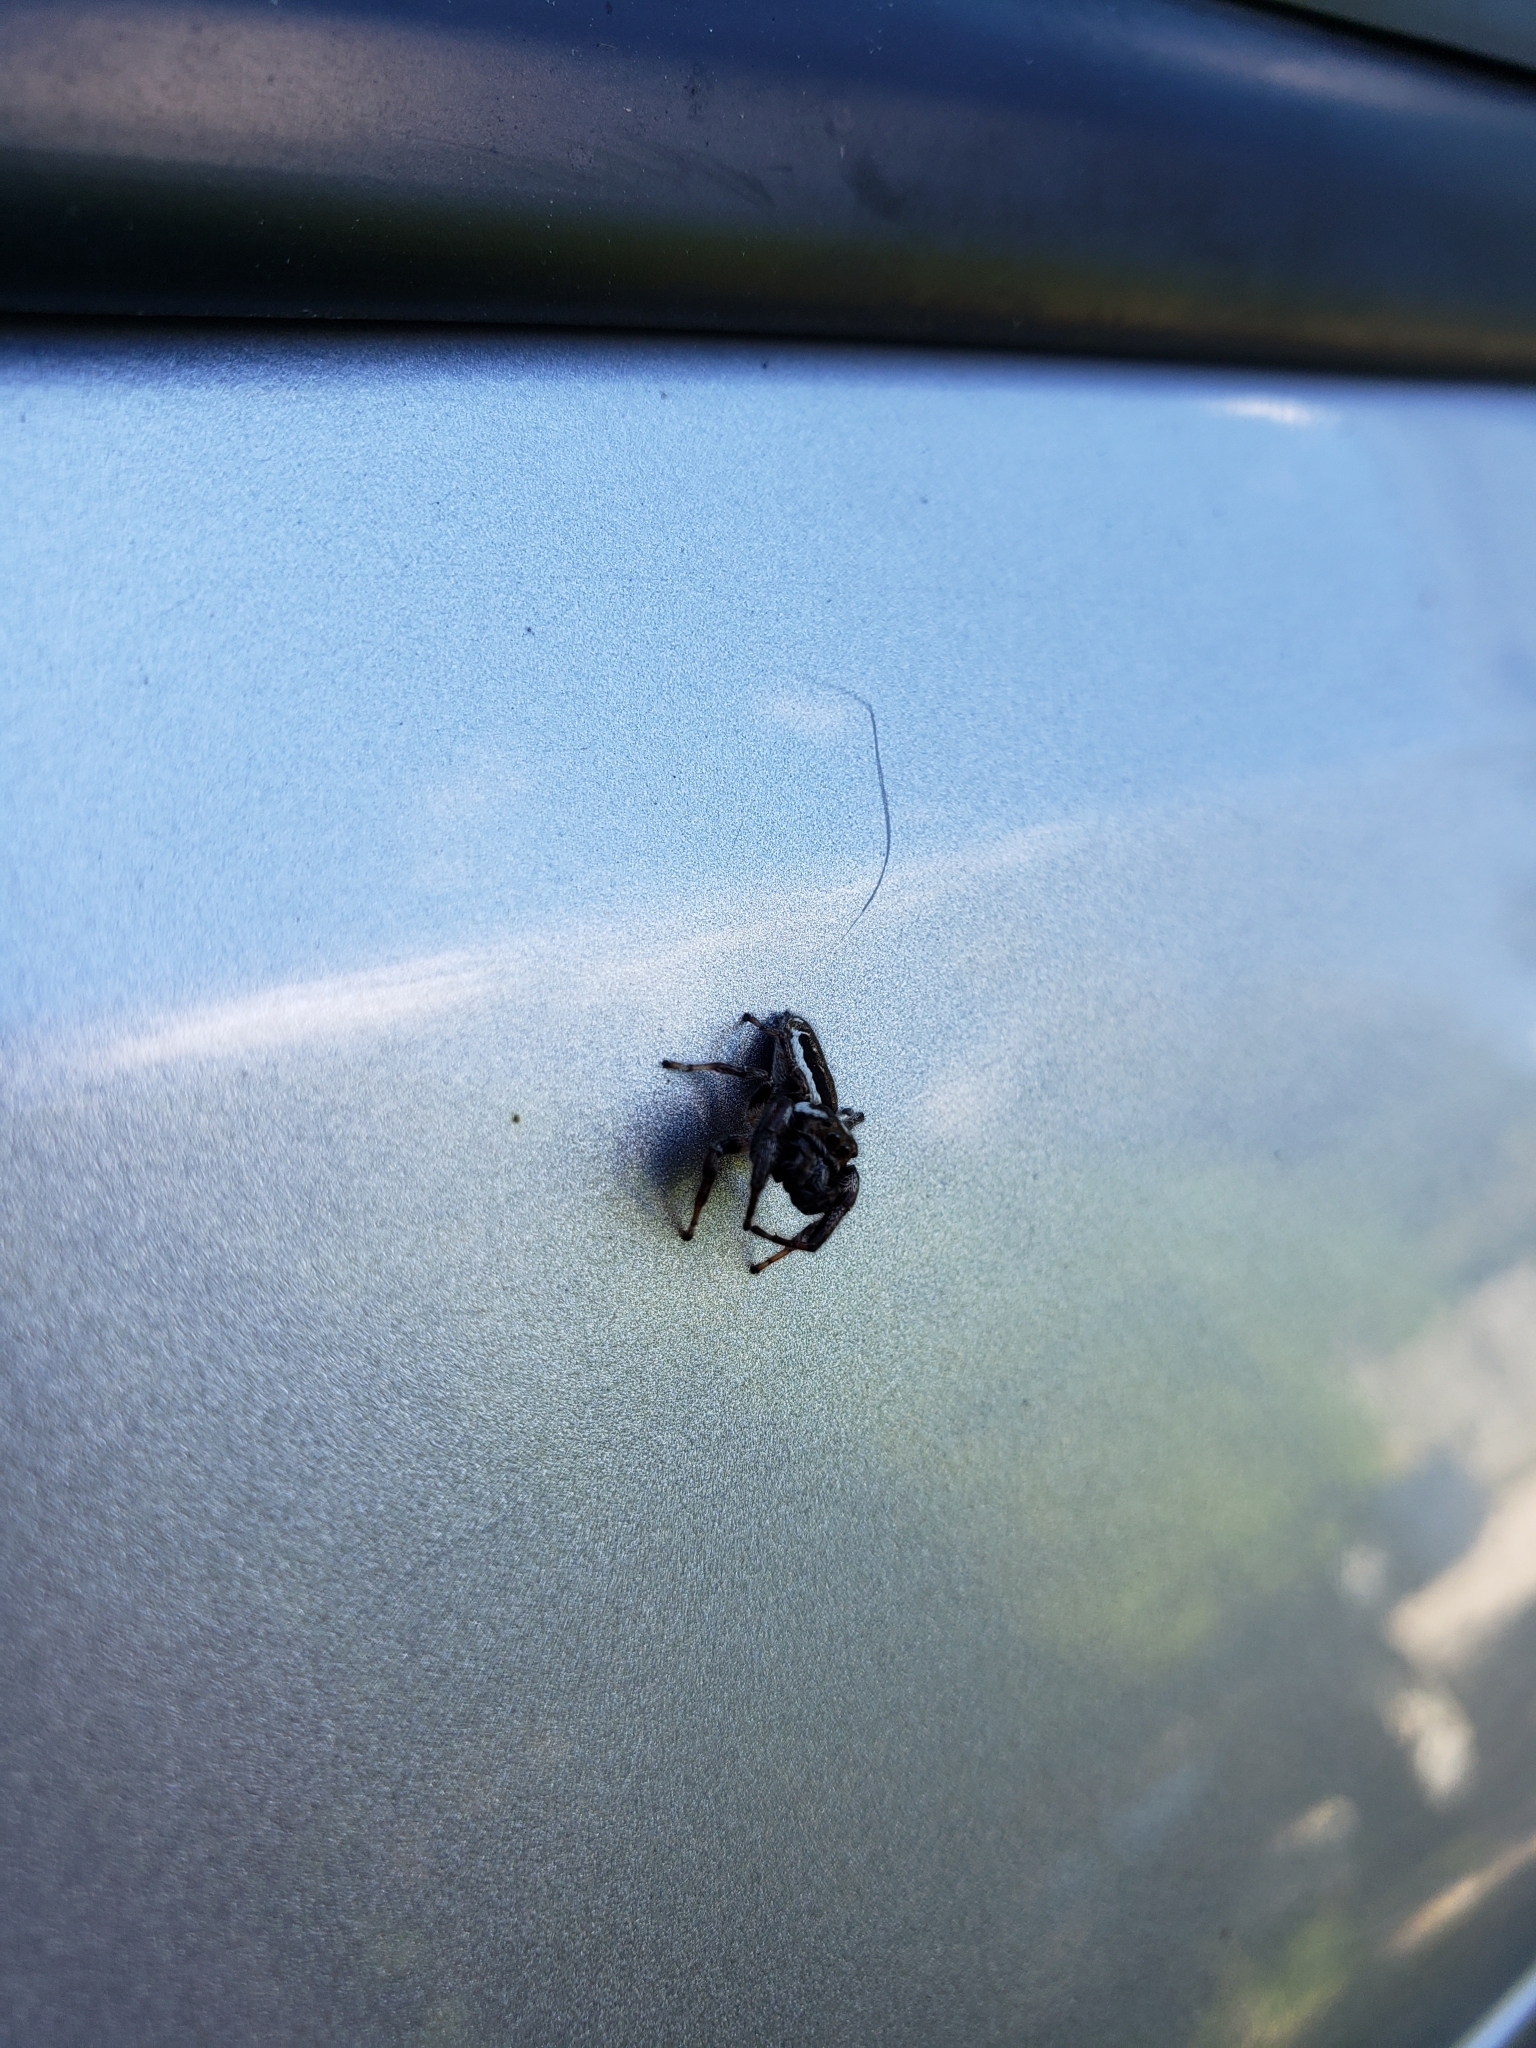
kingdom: Animalia
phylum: Arthropoda
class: Arachnida
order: Araneae
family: Salticidae
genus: Eris
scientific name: Eris militaris
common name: Bronze jumper
